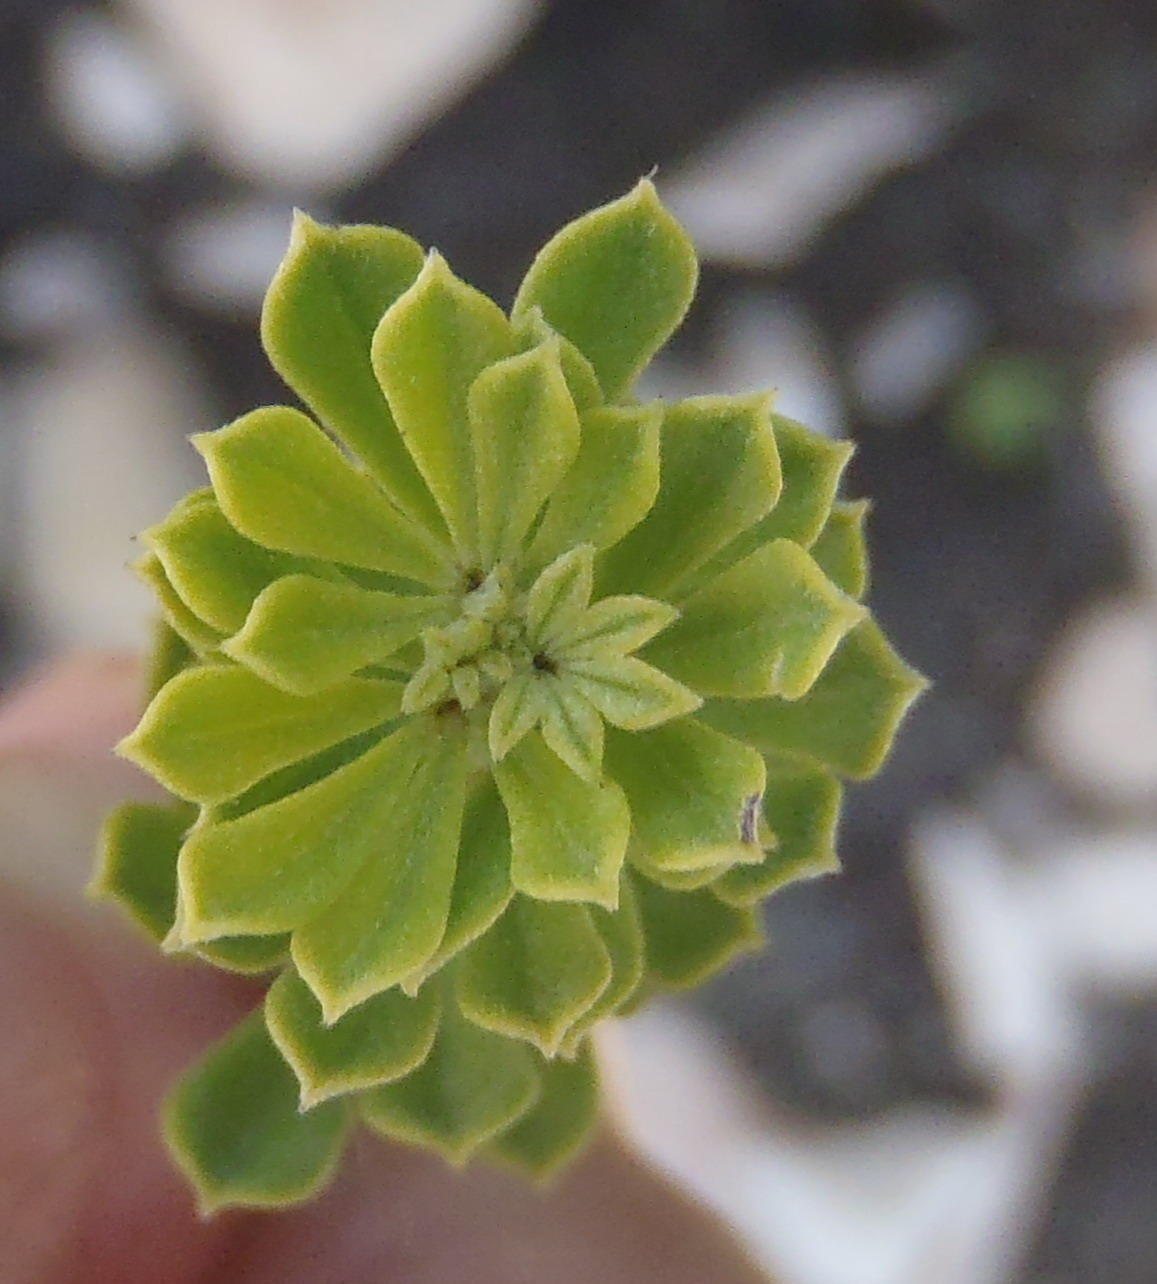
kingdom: Plantae
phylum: Tracheophyta
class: Magnoliopsida
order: Fabales
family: Fabaceae
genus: Indigofera
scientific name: Indigofera flabellata
